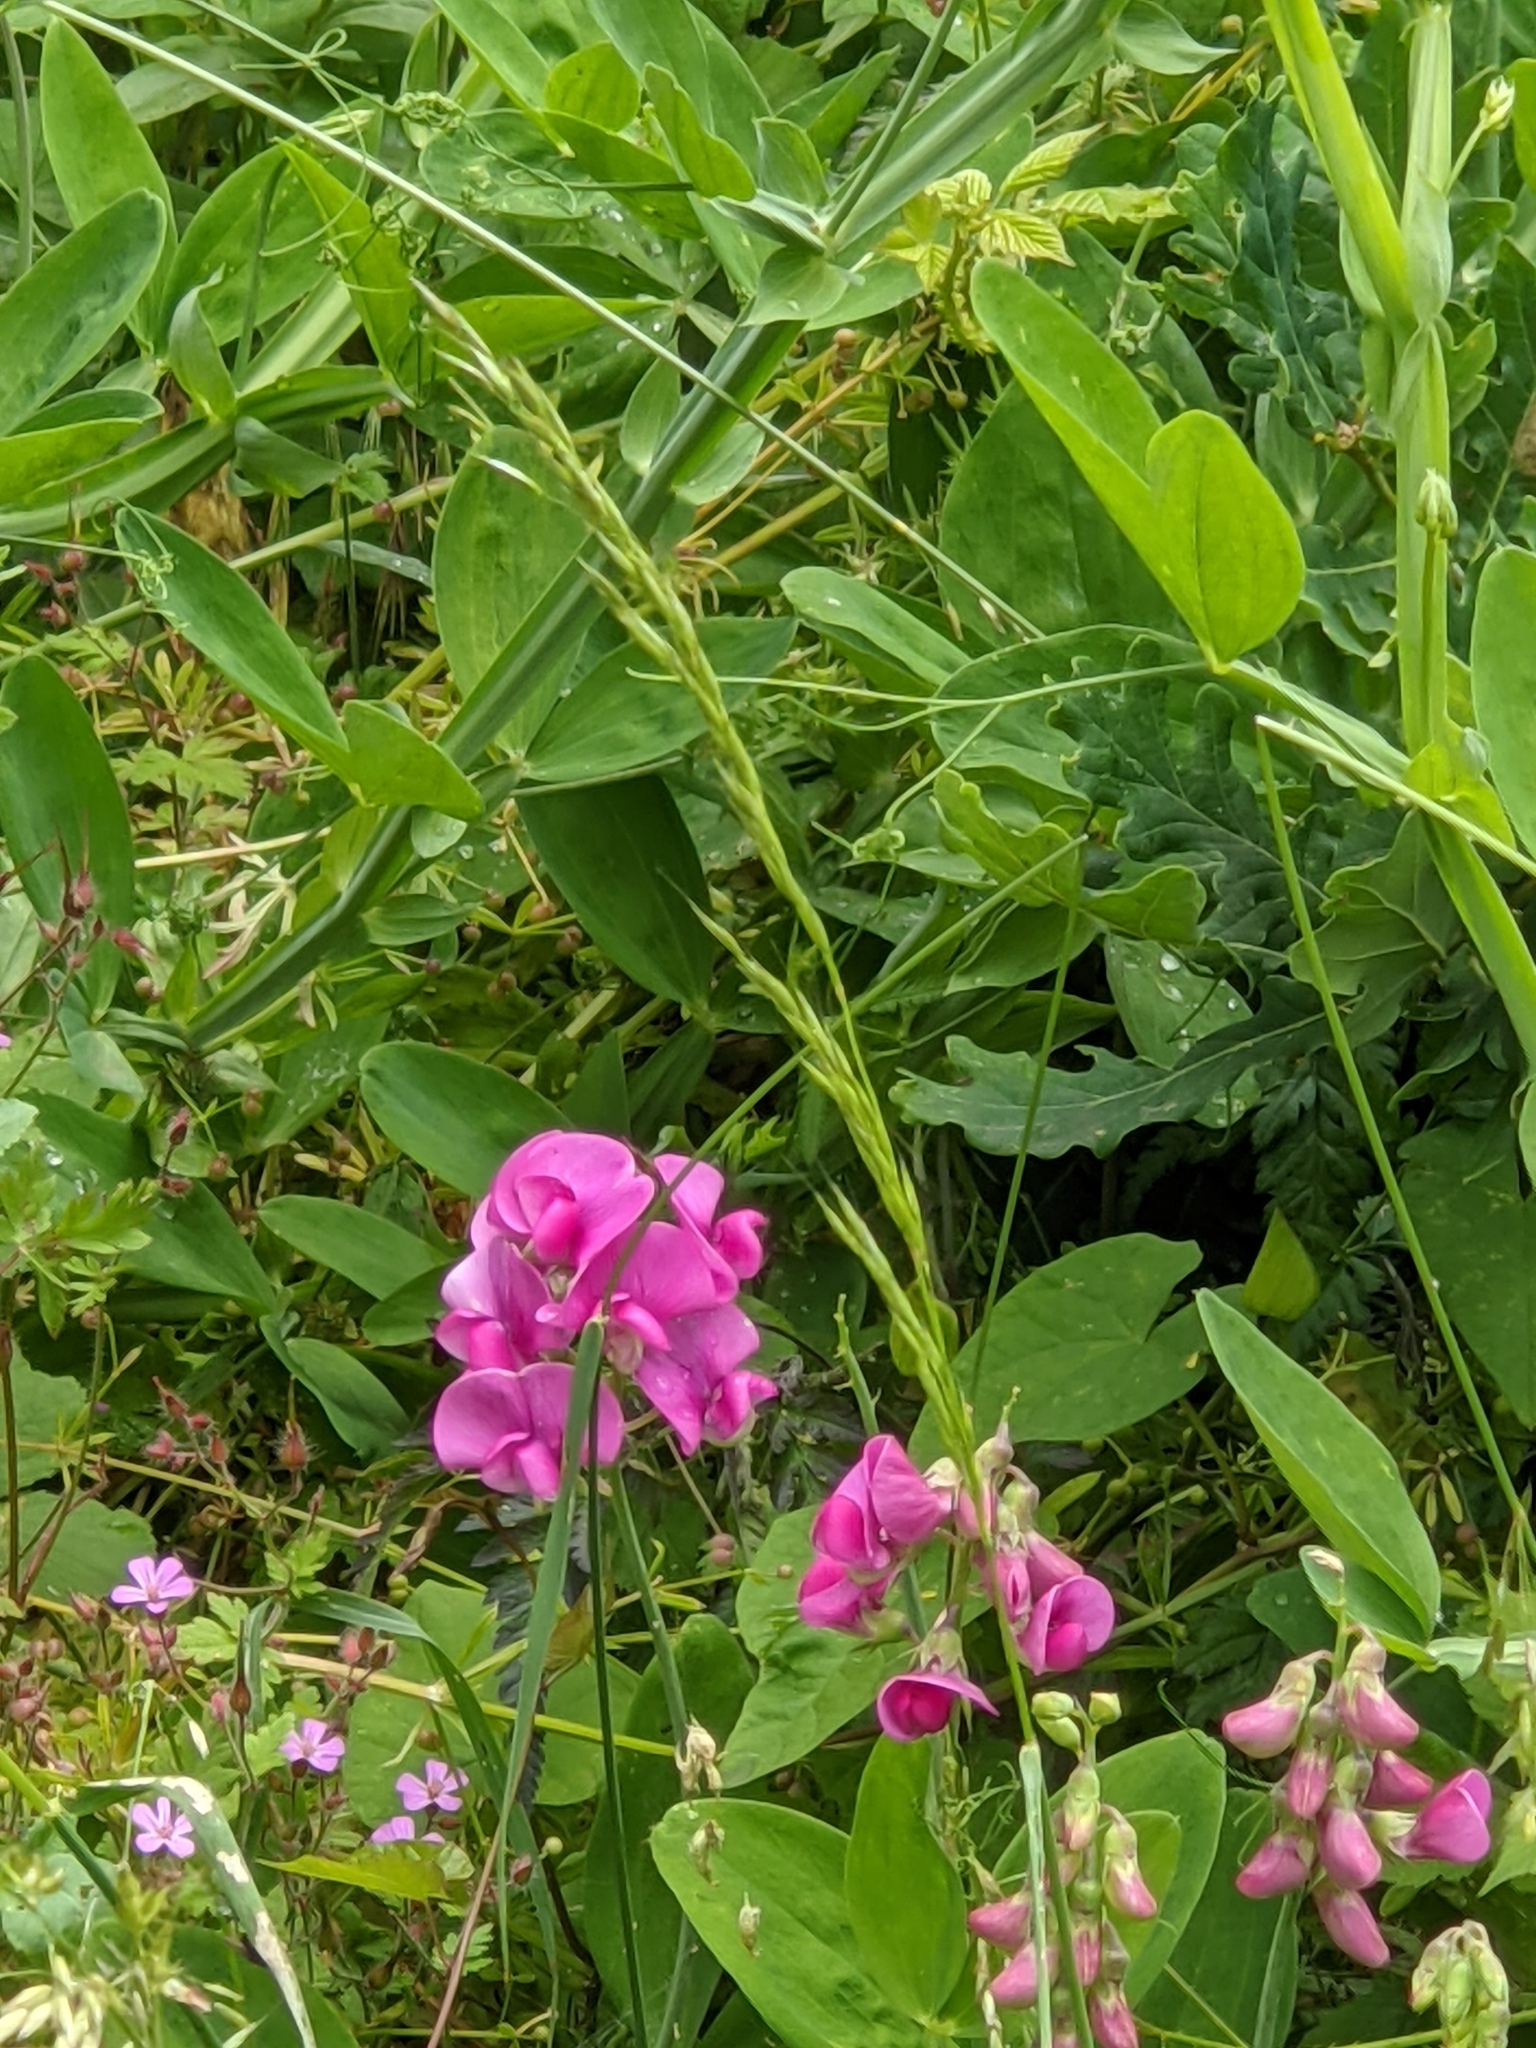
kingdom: Plantae
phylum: Tracheophyta
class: Magnoliopsida
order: Fabales
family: Fabaceae
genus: Lathyrus
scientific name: Lathyrus latifolius
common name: Perennial pea
